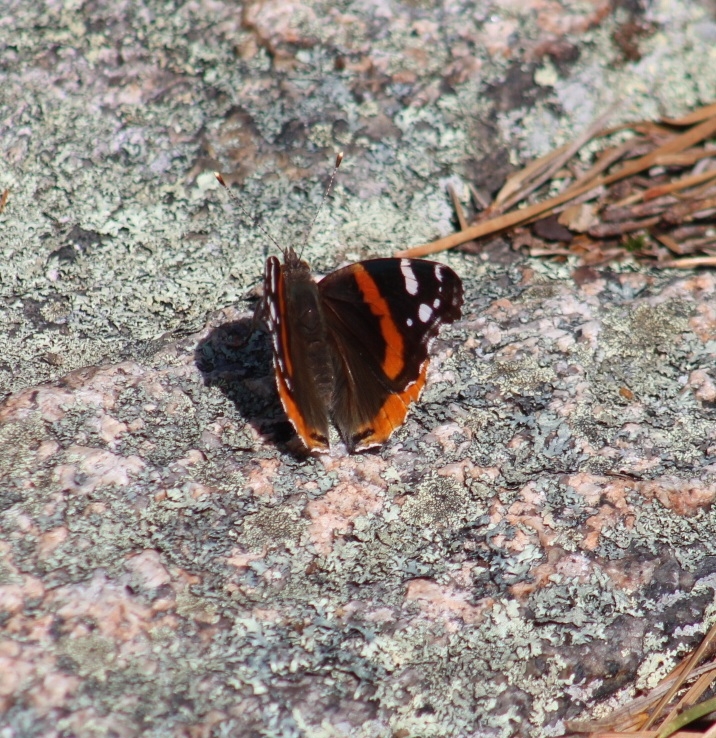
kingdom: Animalia
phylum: Arthropoda
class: Insecta
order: Lepidoptera
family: Nymphalidae
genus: Vanessa
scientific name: Vanessa atalanta
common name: Red admiral
